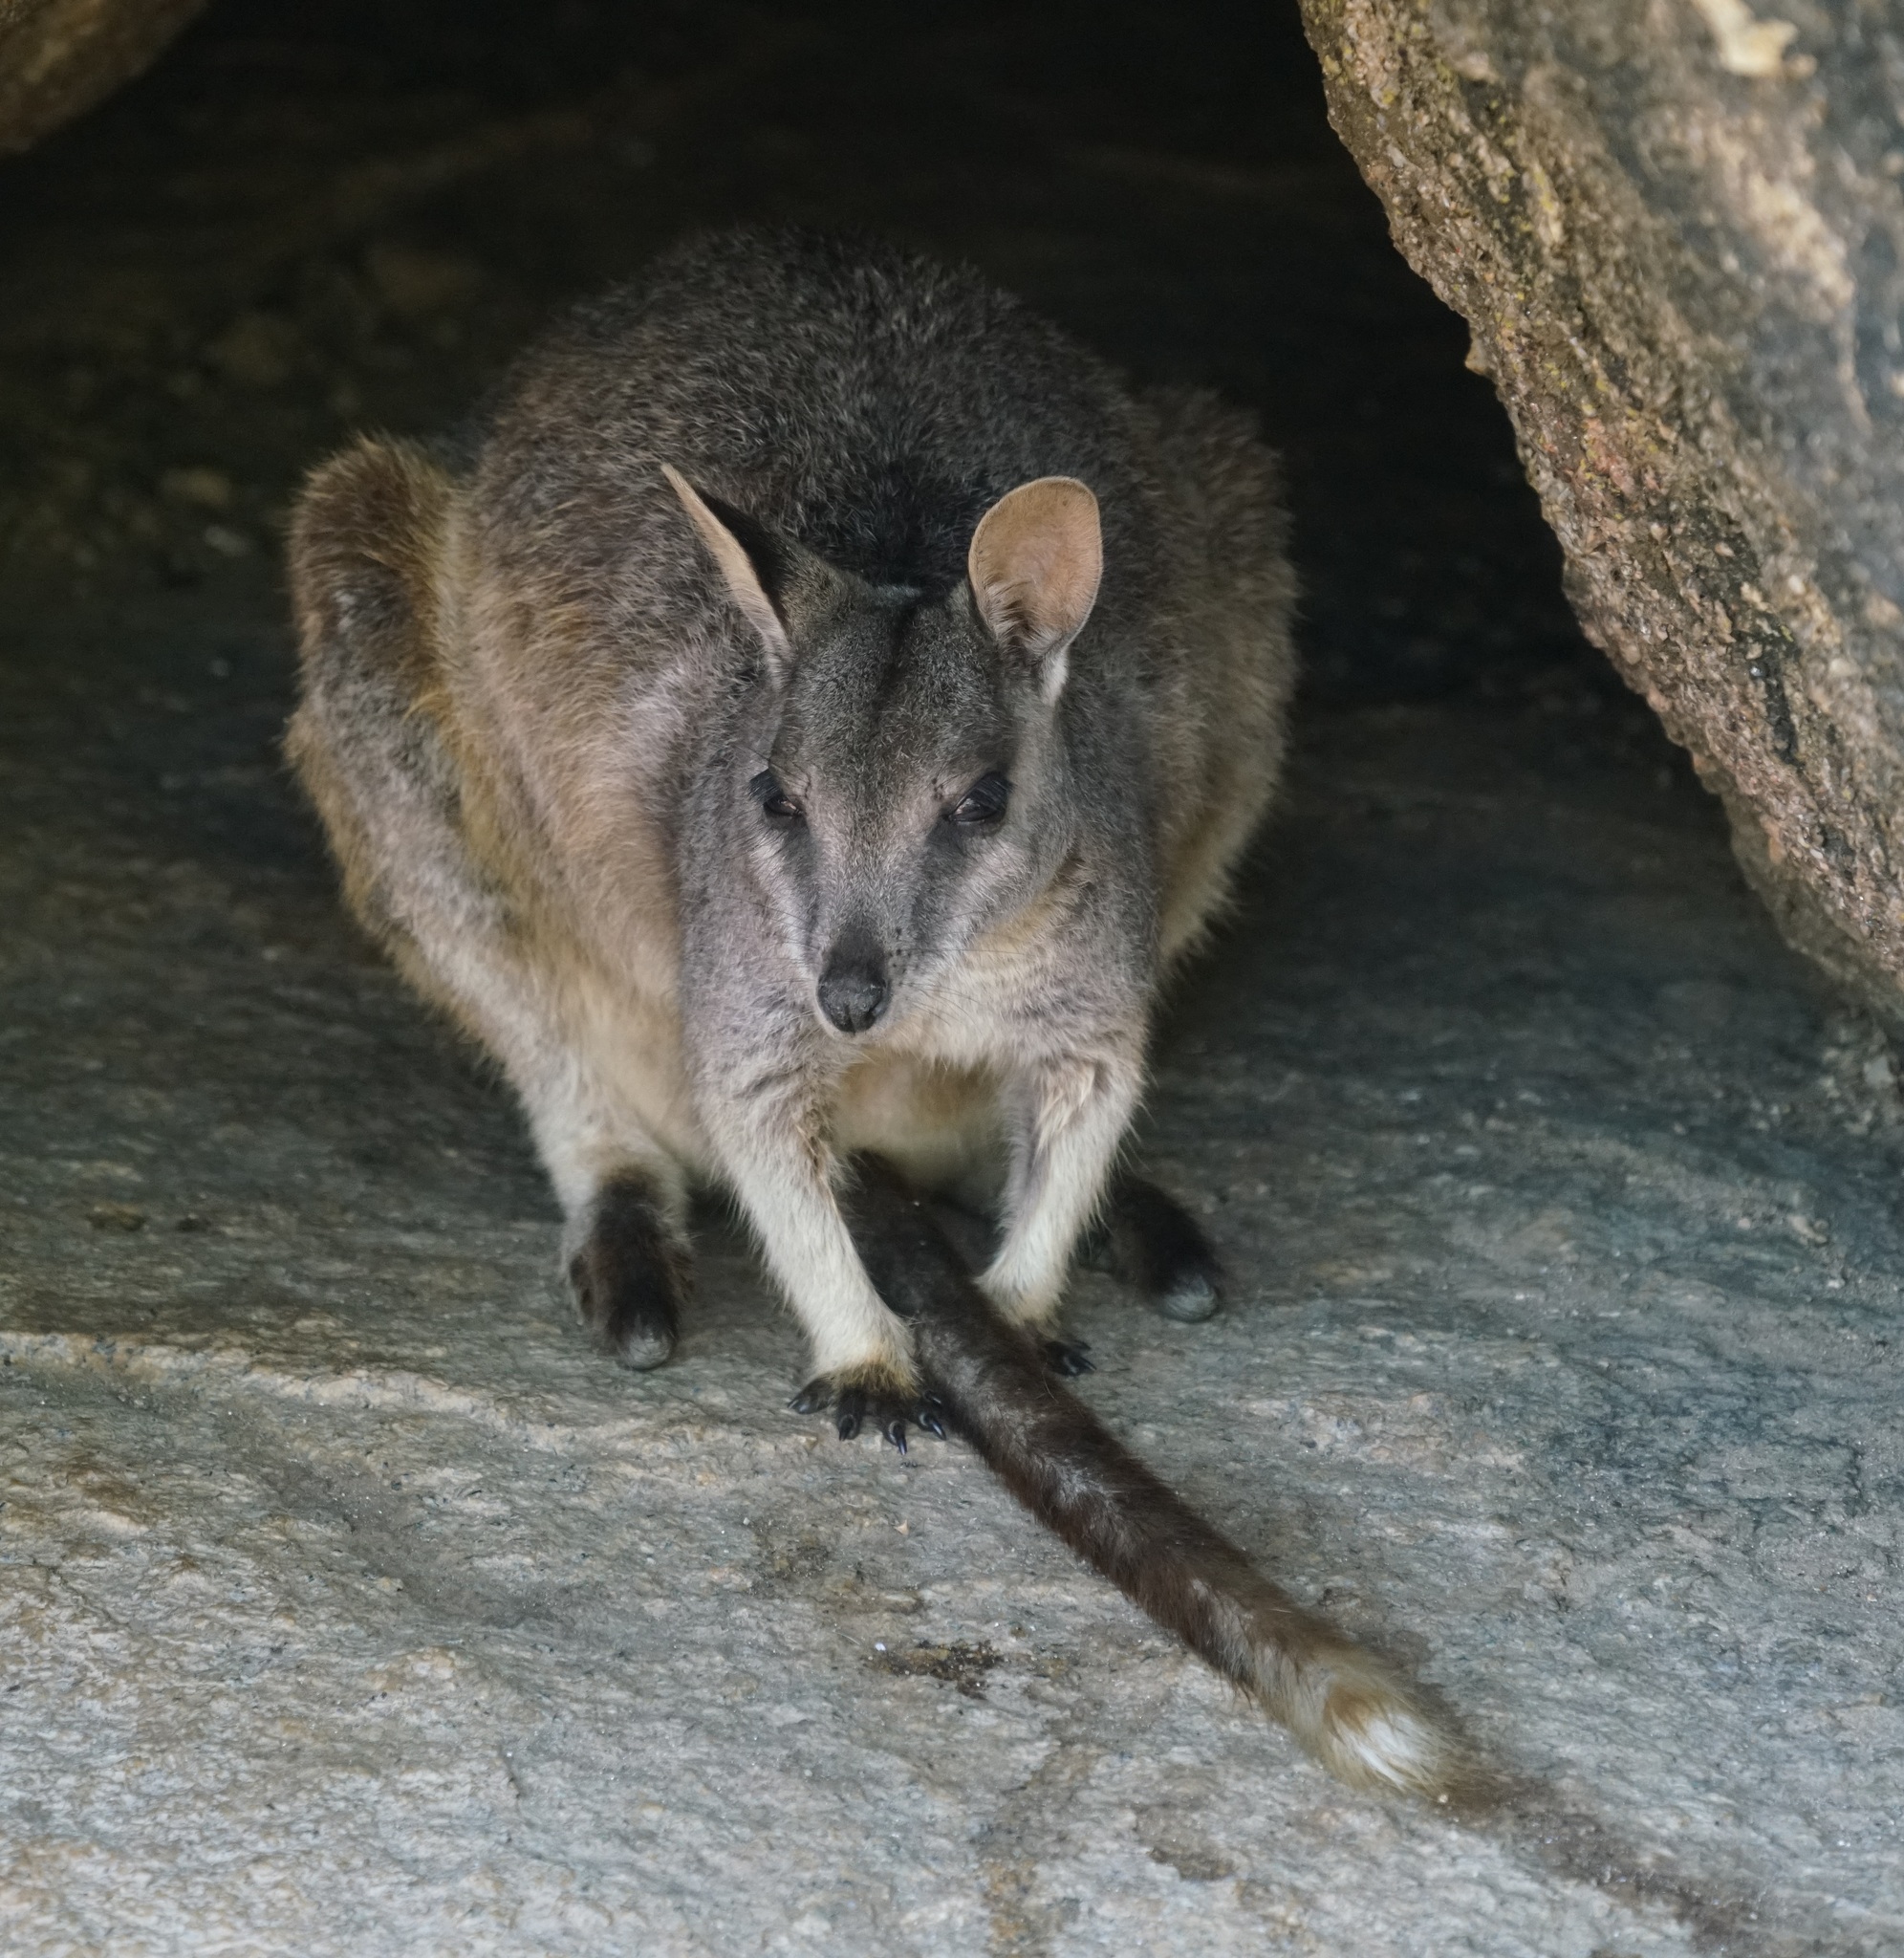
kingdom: Animalia
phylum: Chordata
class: Mammalia
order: Diprotodontia
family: Macropodidae
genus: Petrogale
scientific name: Petrogale mareeba
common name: Mareeba rock-wallaby
